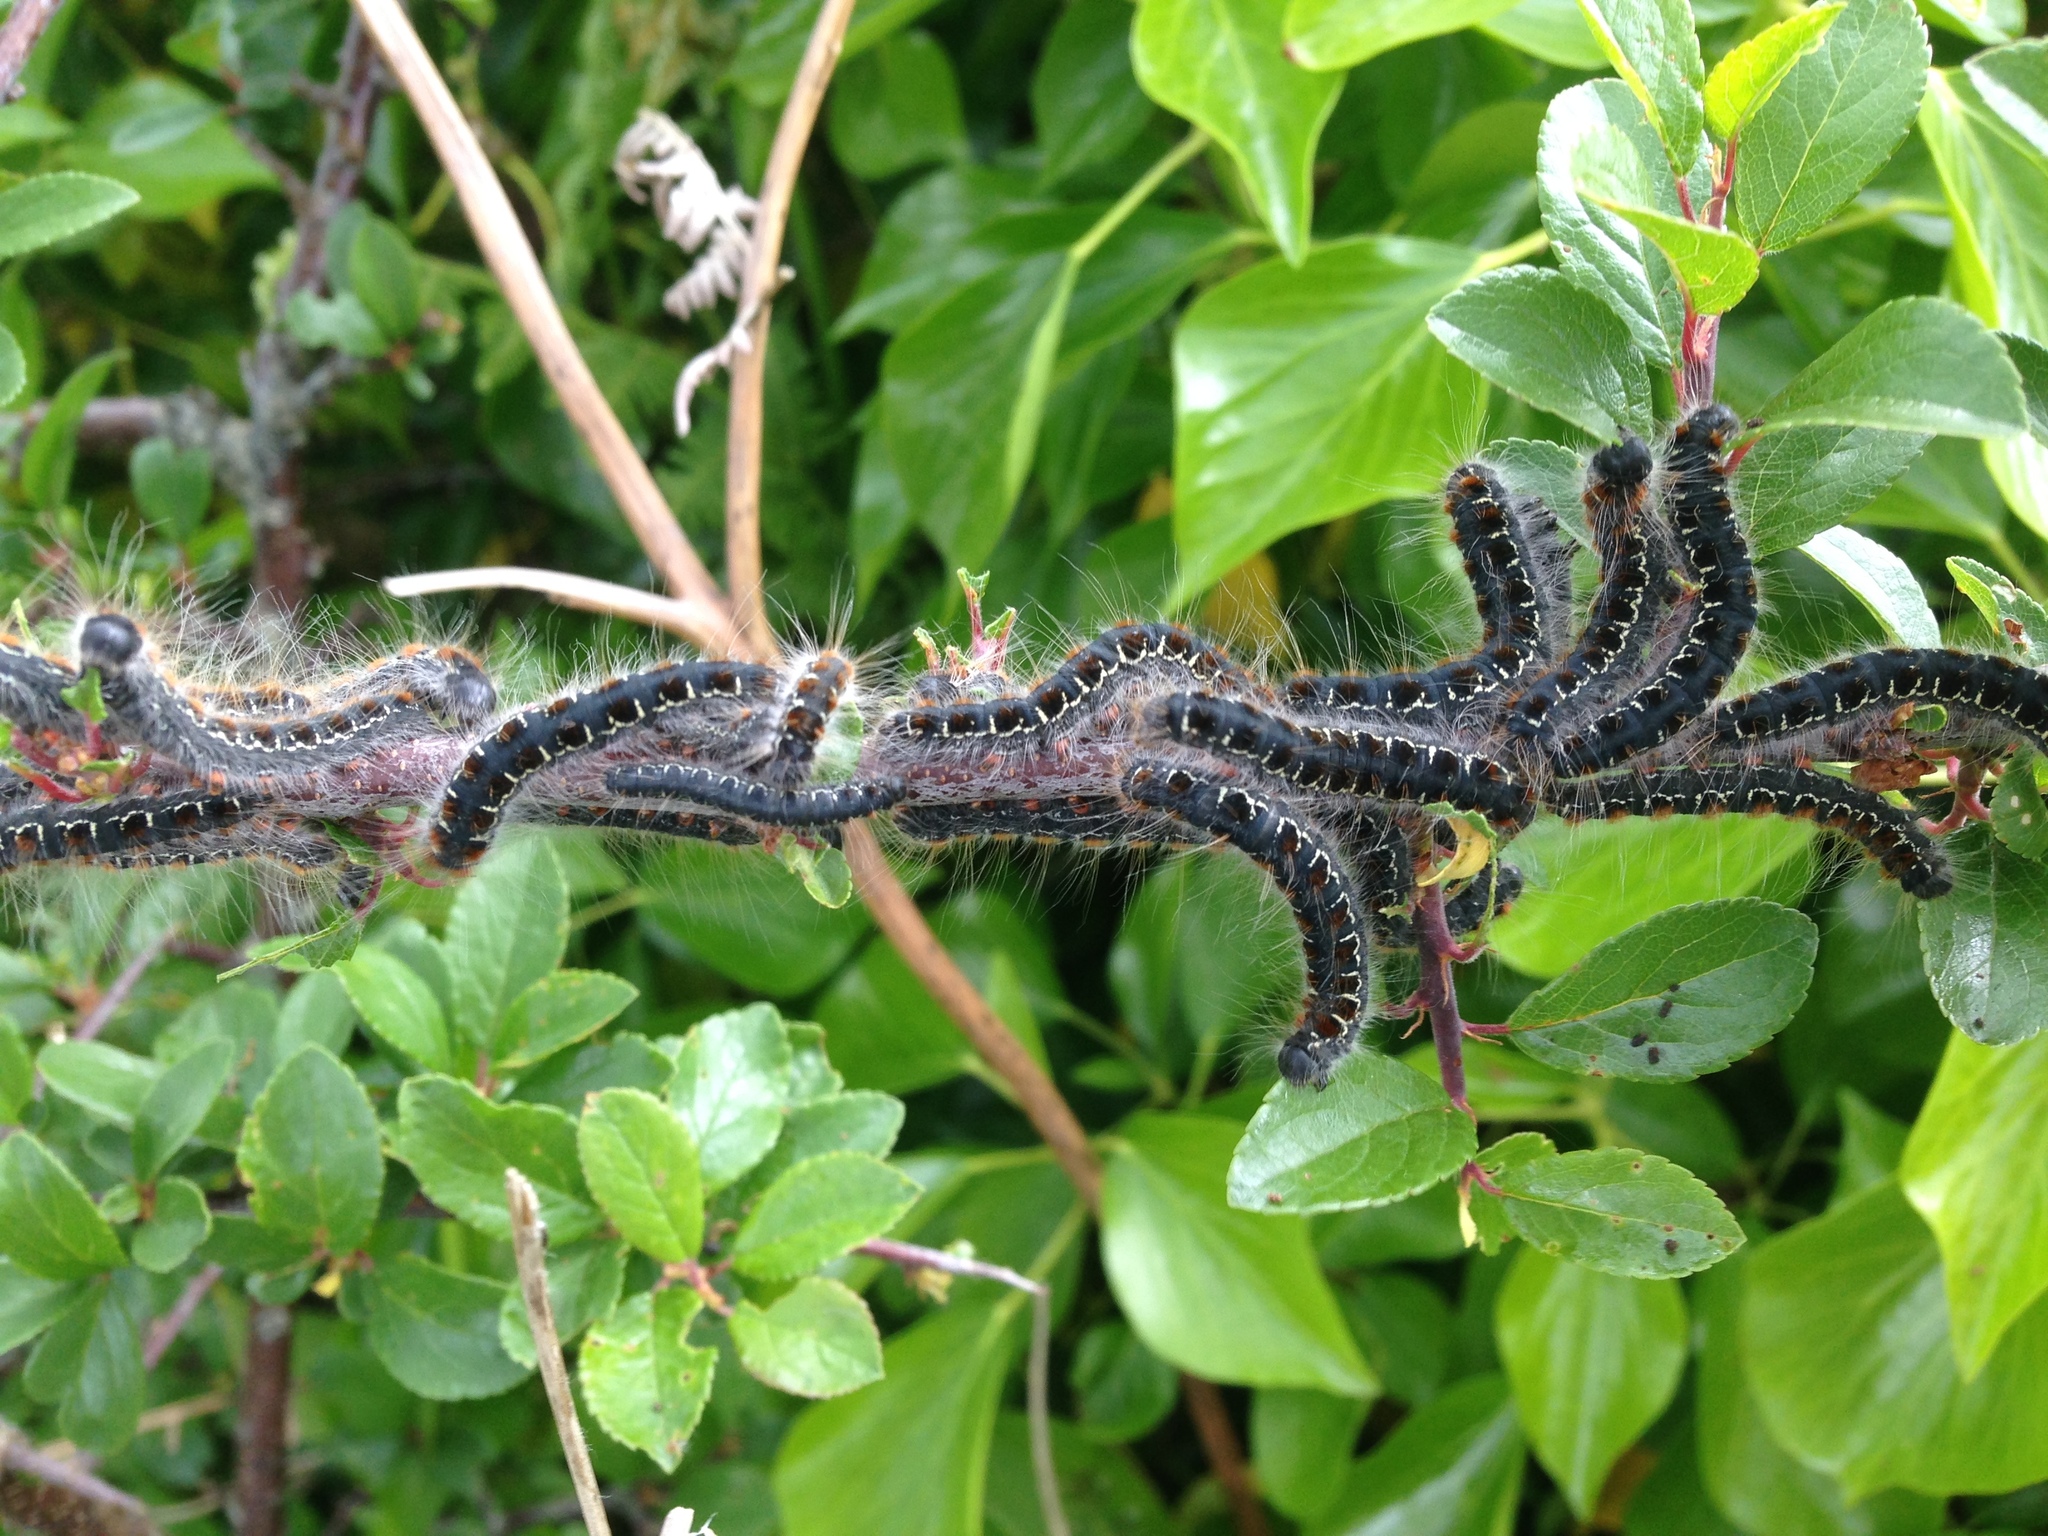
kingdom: Animalia
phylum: Arthropoda
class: Insecta
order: Lepidoptera
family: Lasiocampidae
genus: Eriogaster
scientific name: Eriogaster lanestris
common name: Small eggar
